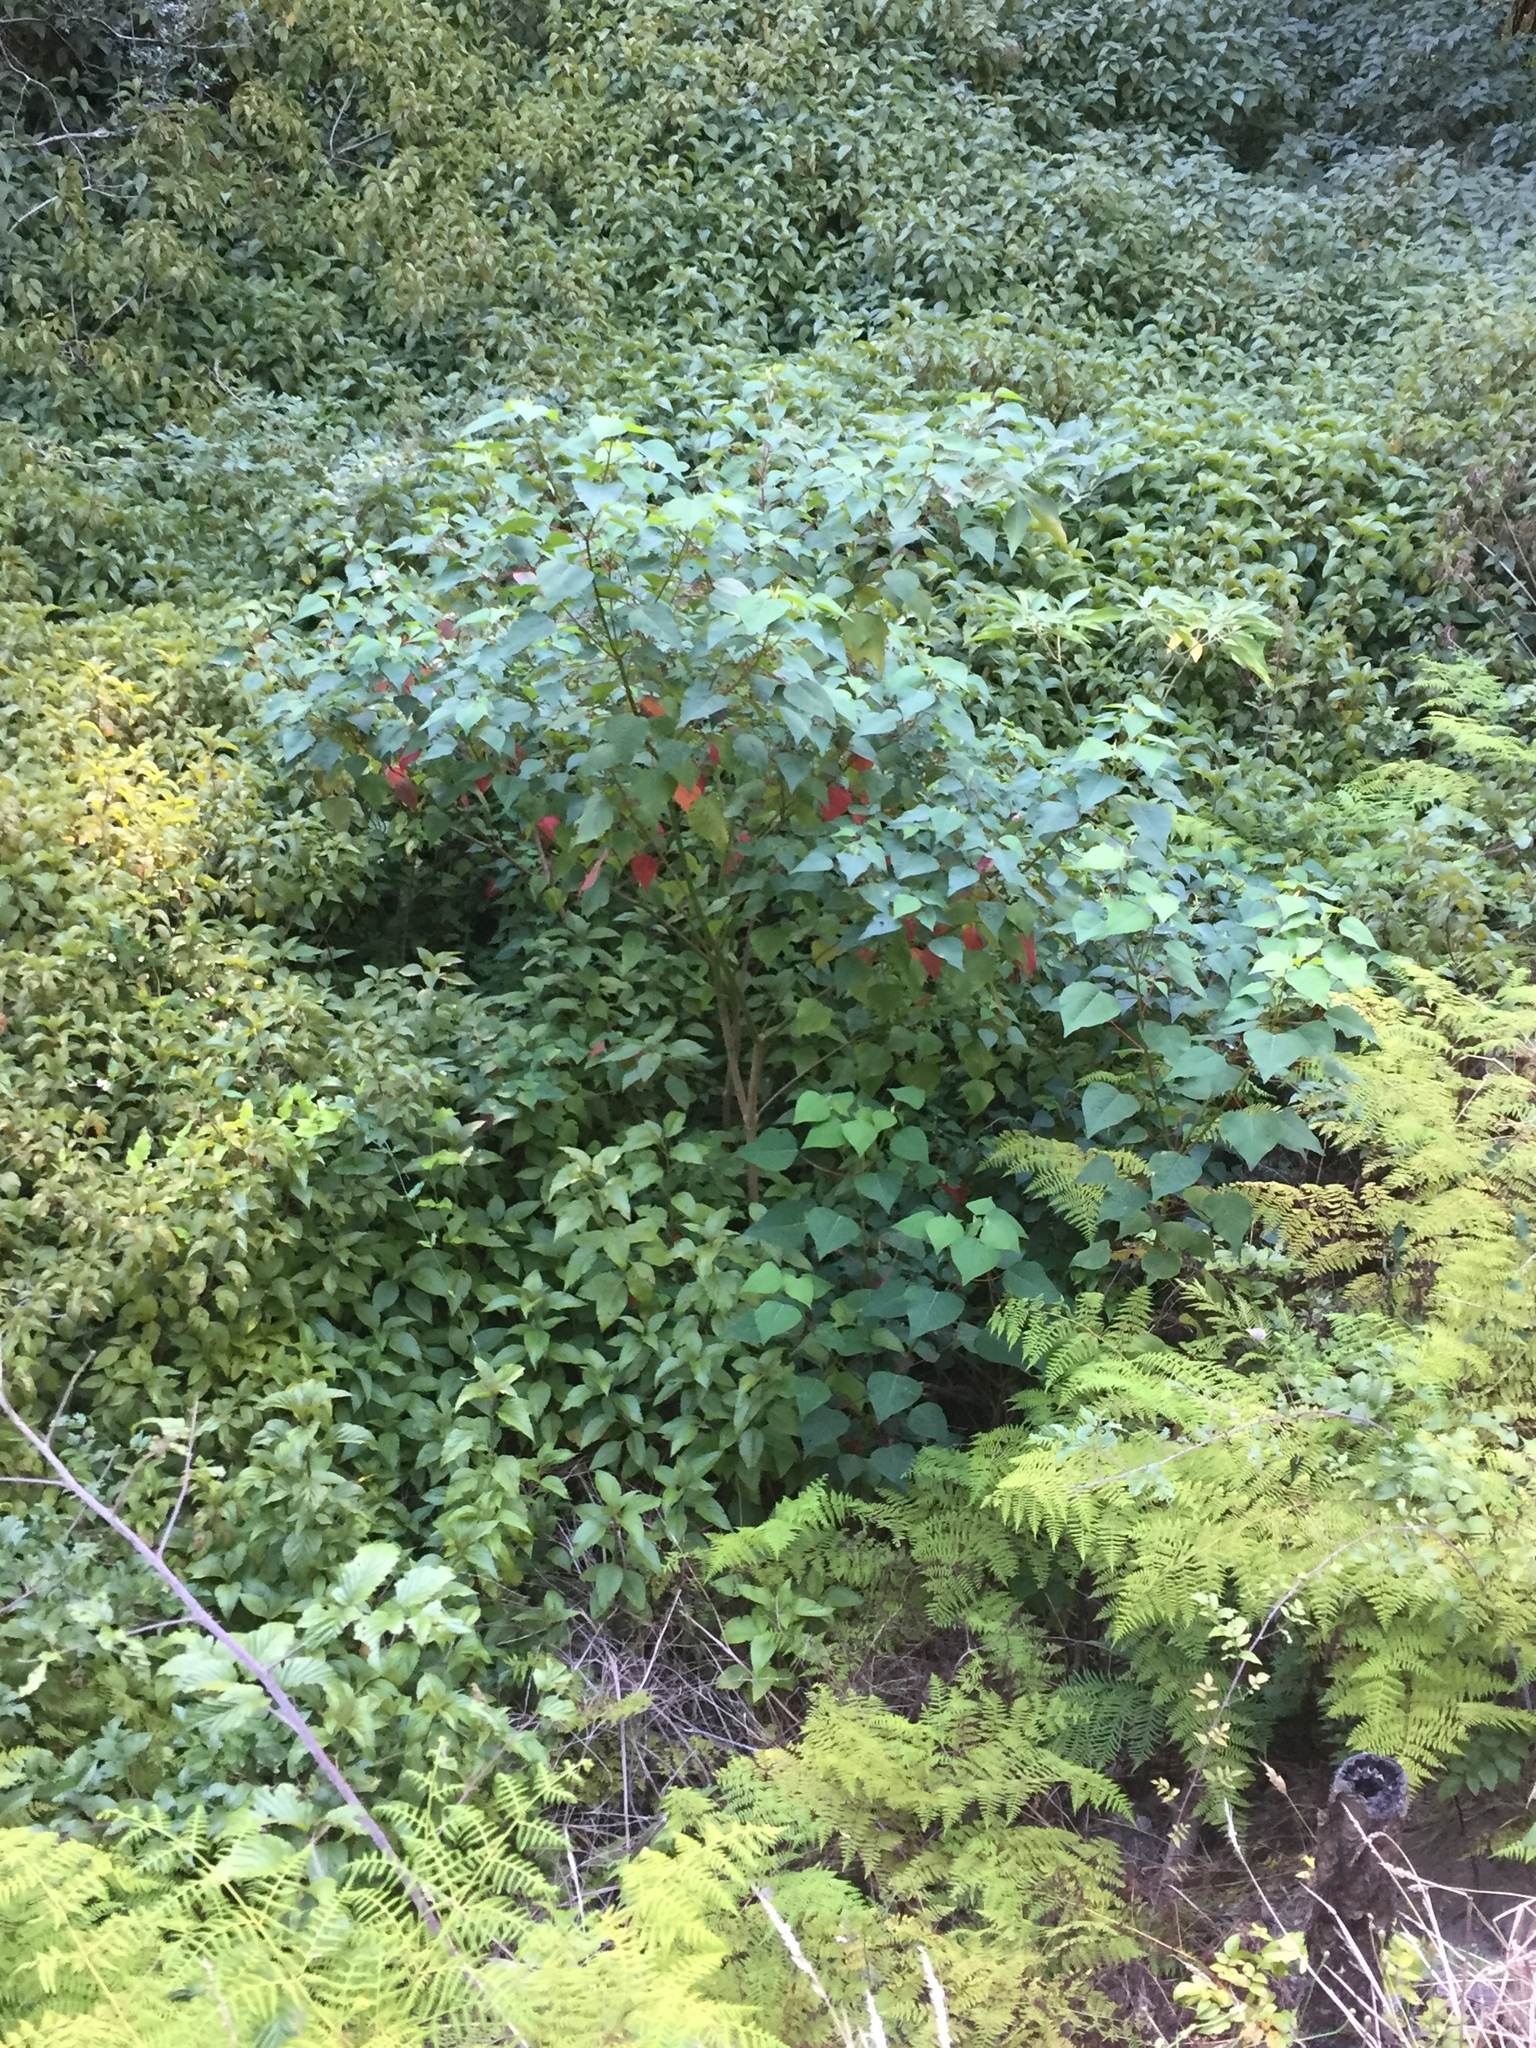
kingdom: Plantae
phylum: Tracheophyta
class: Magnoliopsida
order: Malpighiales
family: Euphorbiaceae
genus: Homalanthus
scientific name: Homalanthus populifolius
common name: Queensland poplar
